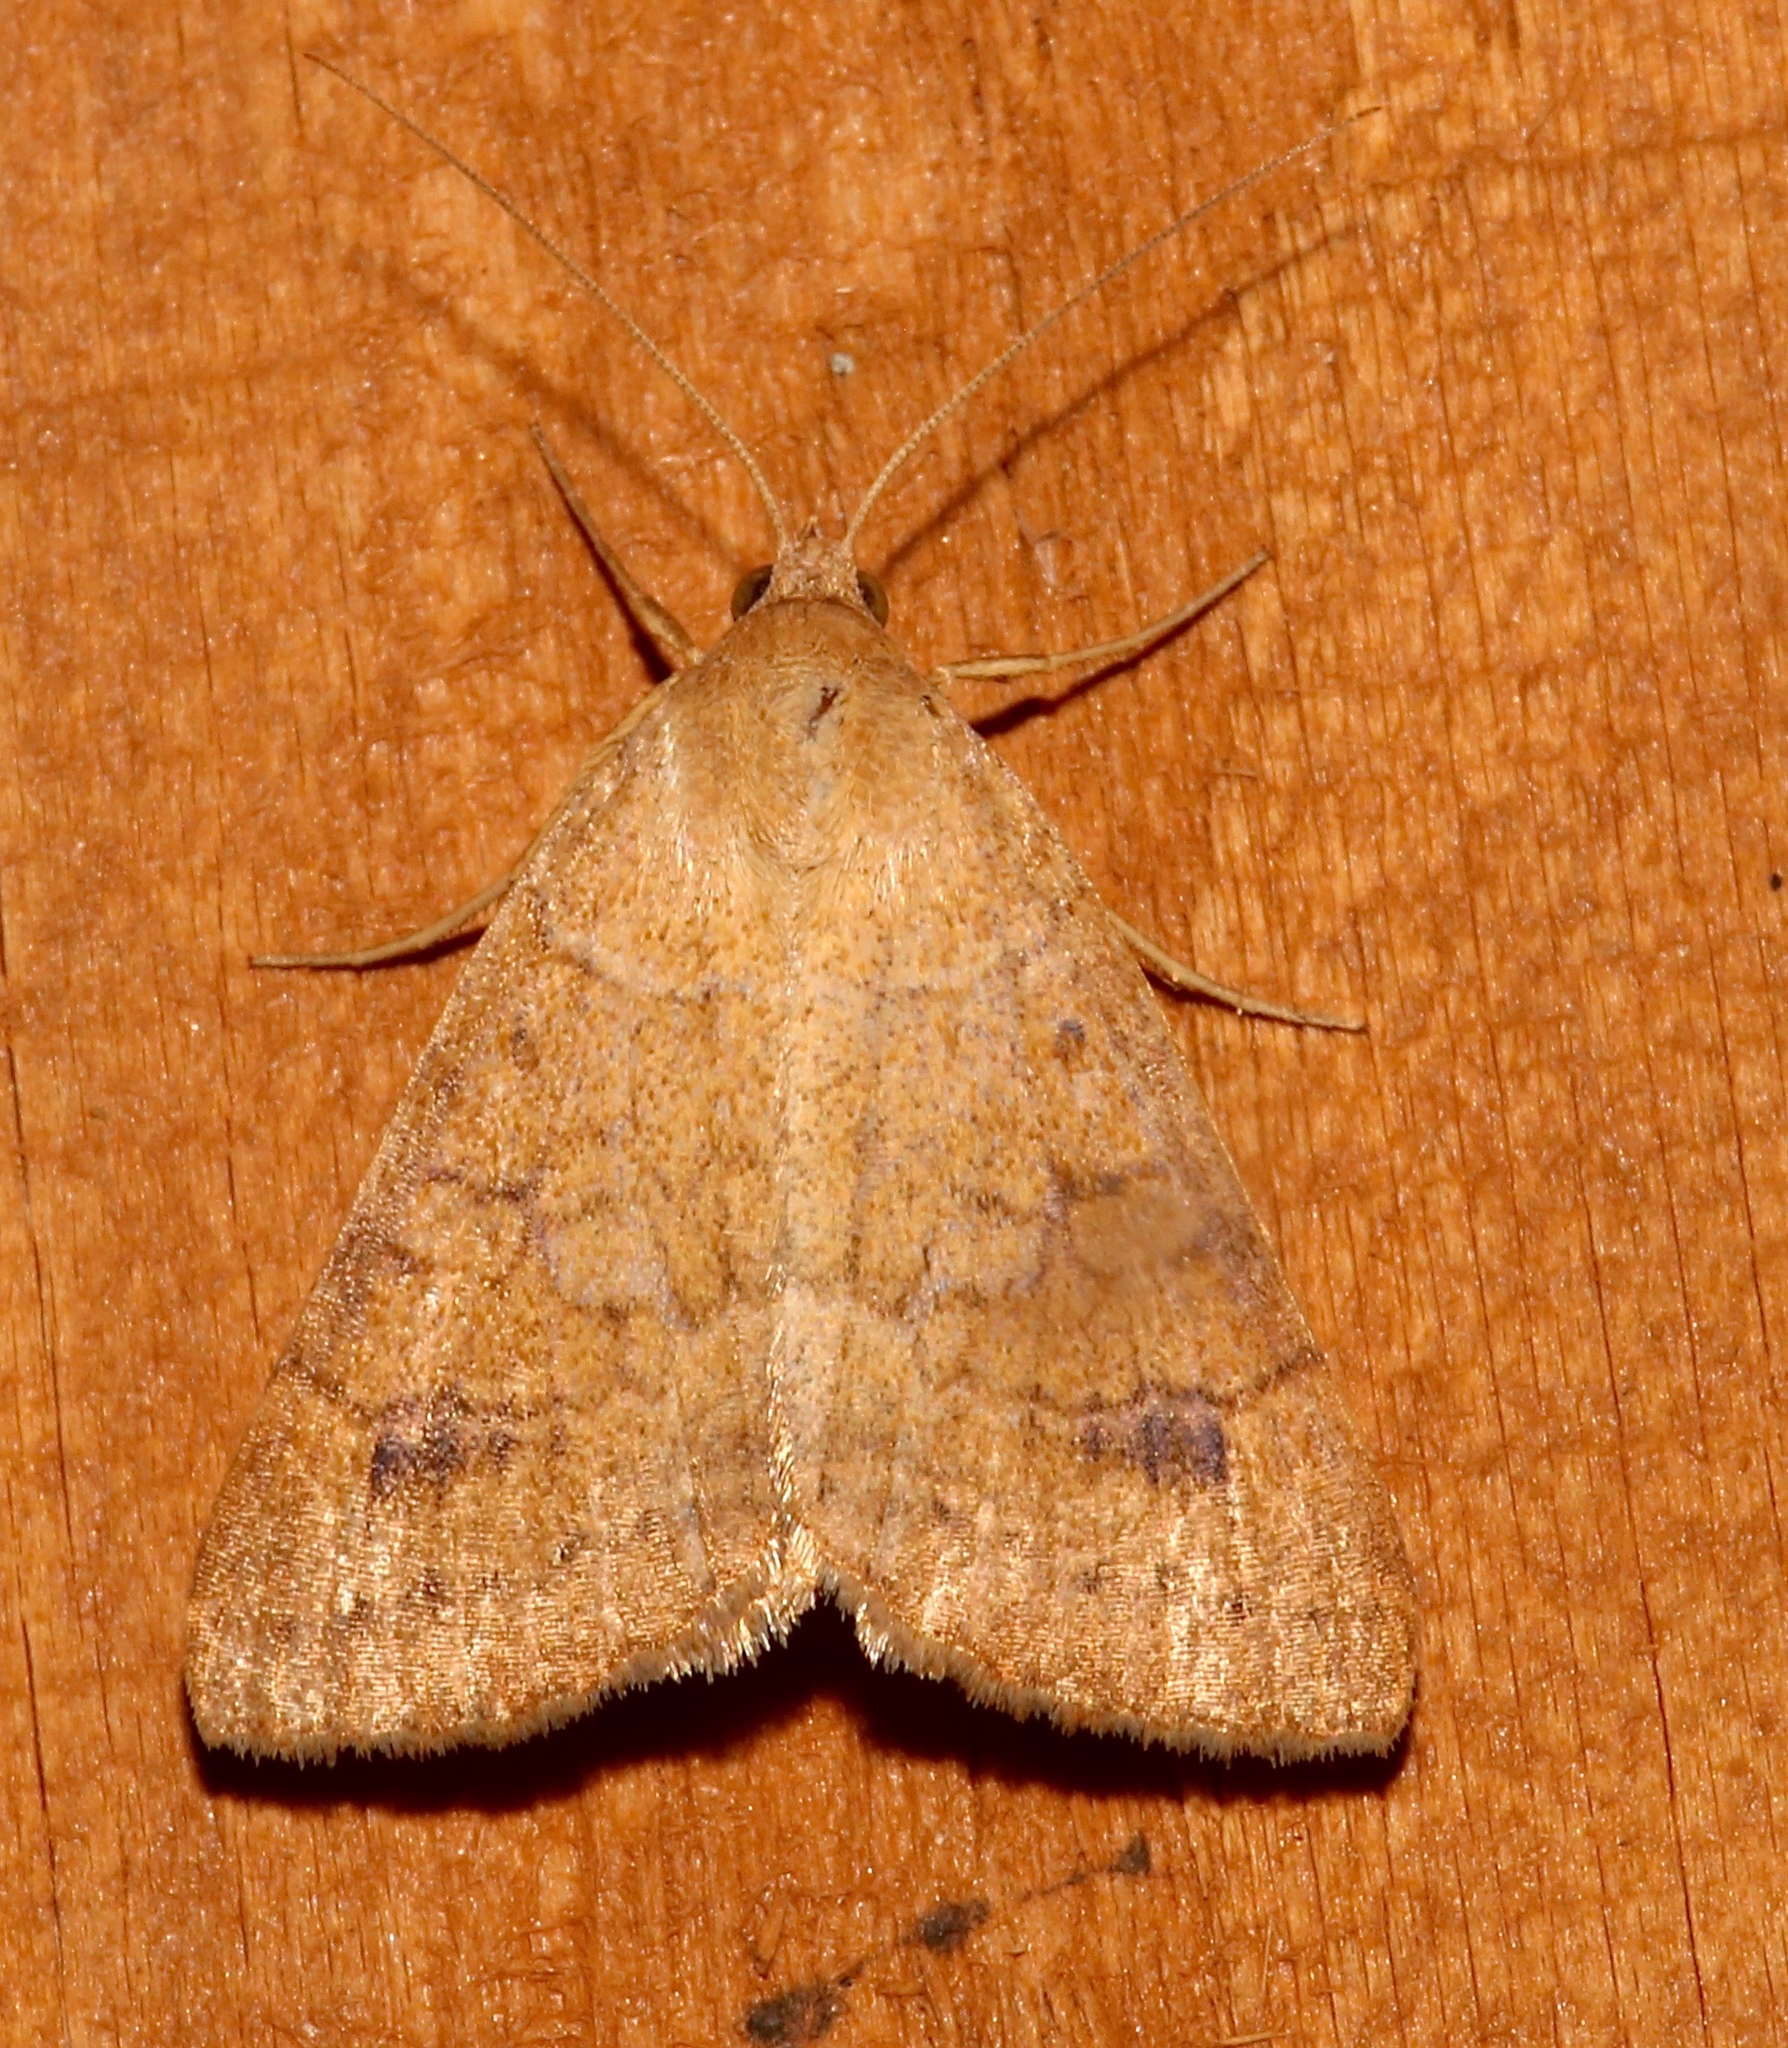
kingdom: Animalia
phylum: Arthropoda
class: Insecta
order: Lepidoptera
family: Erebidae
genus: Caenurgia
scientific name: Caenurgia chloropha
